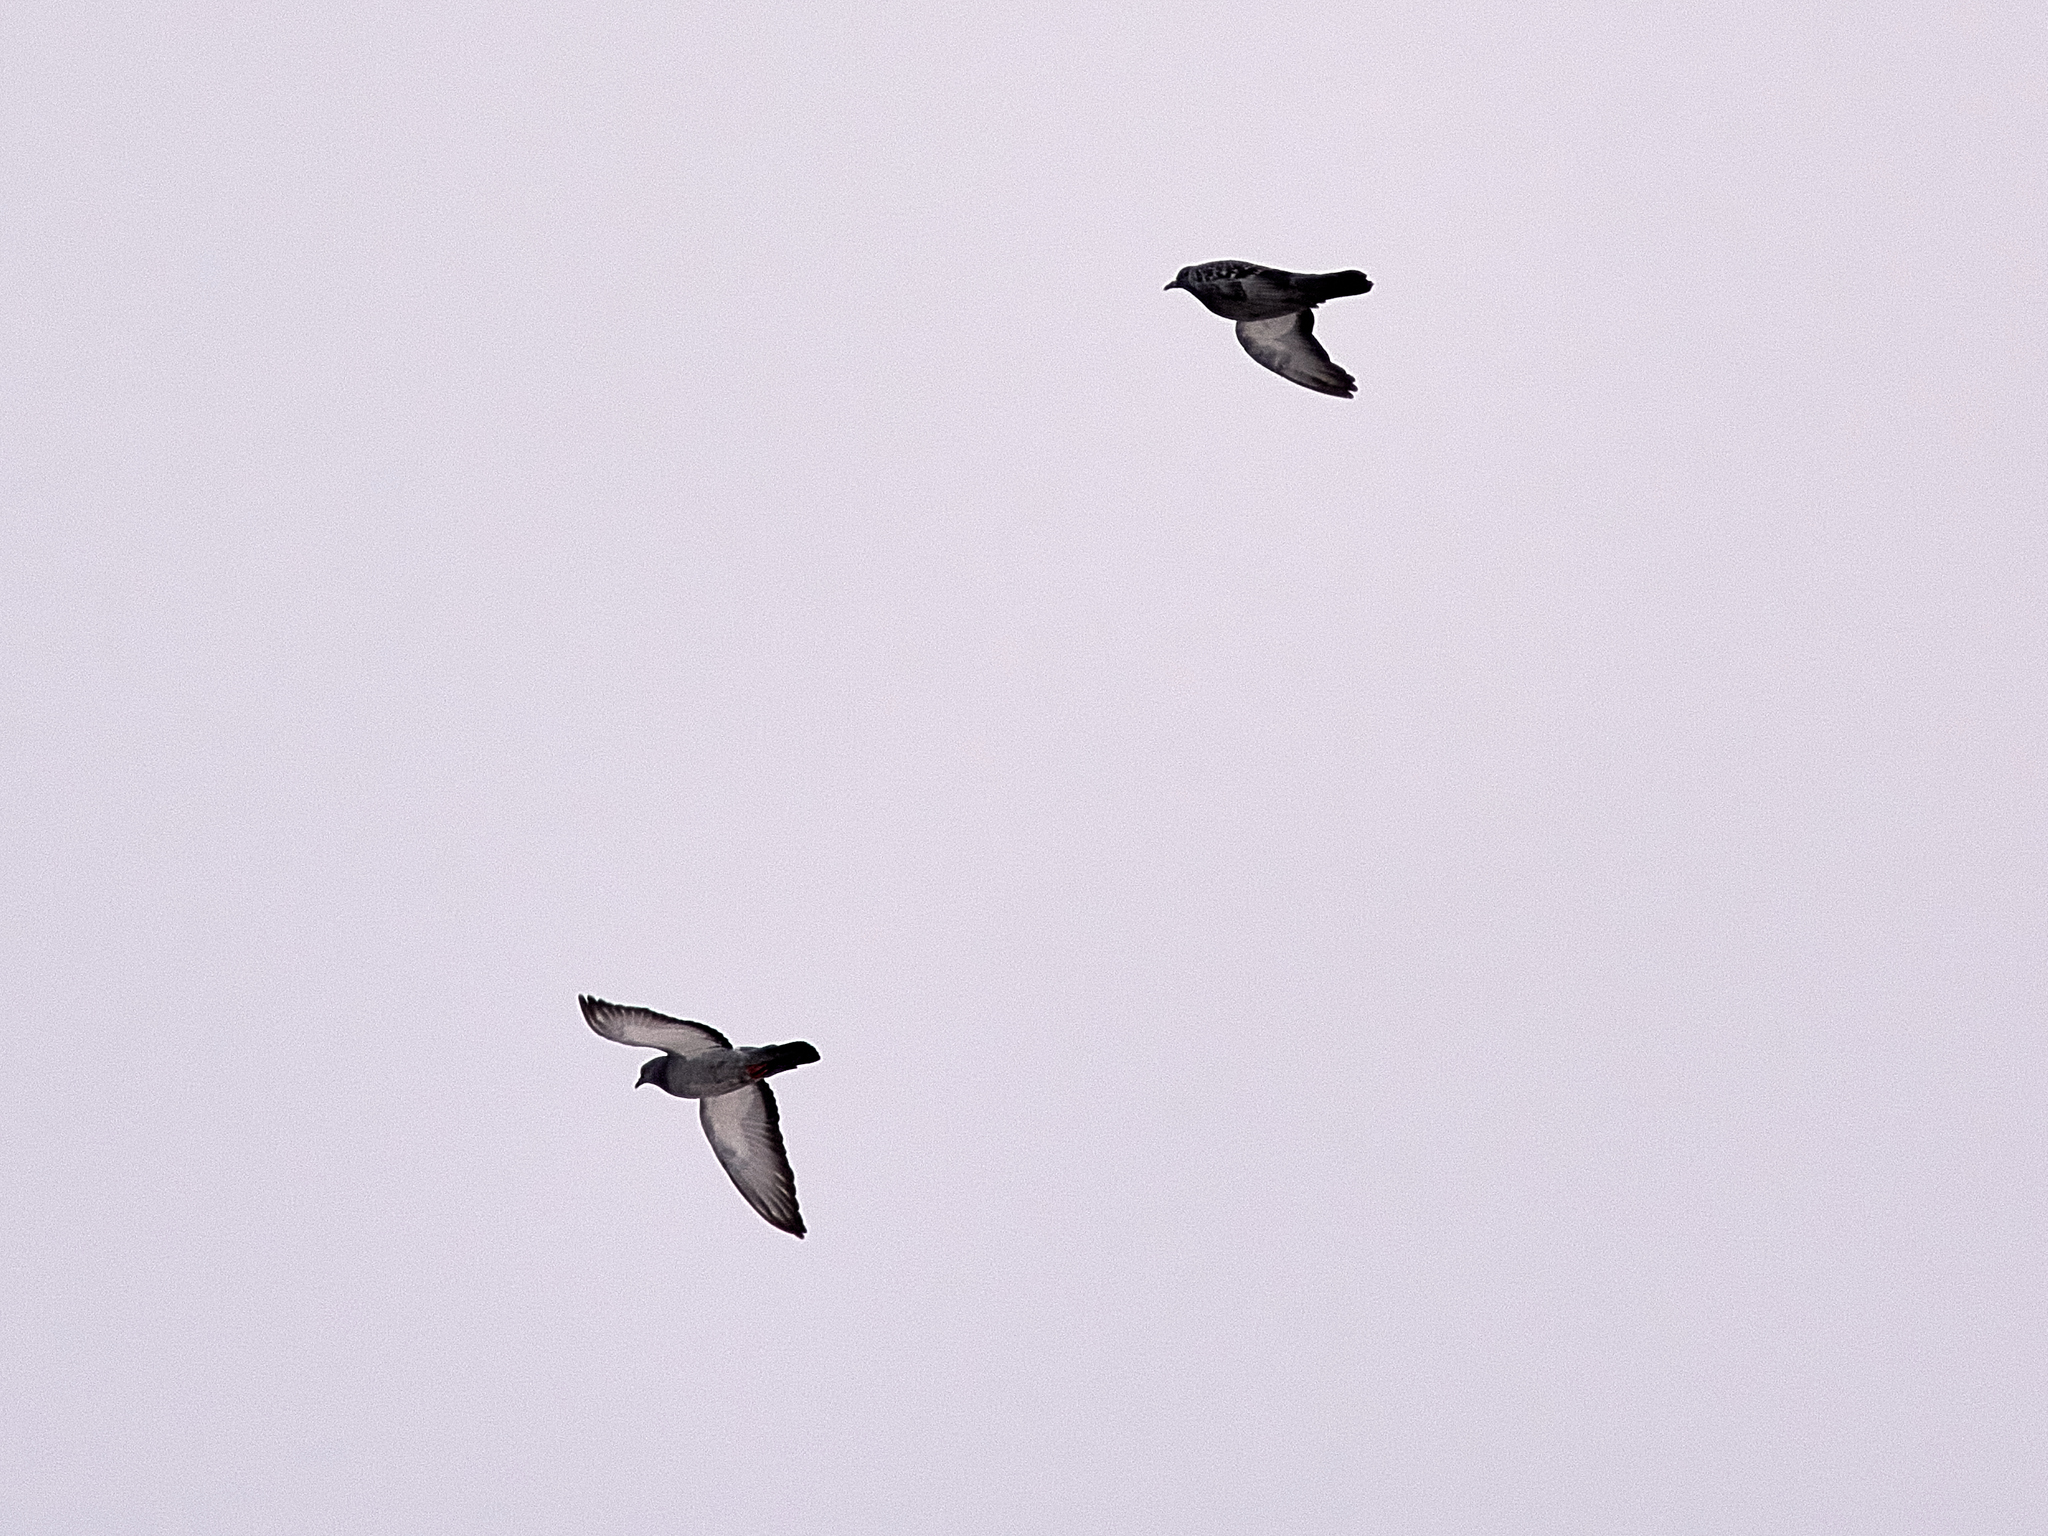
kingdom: Animalia
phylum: Chordata
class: Aves
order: Columbiformes
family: Columbidae
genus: Columba
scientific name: Columba livia
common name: Rock pigeon
